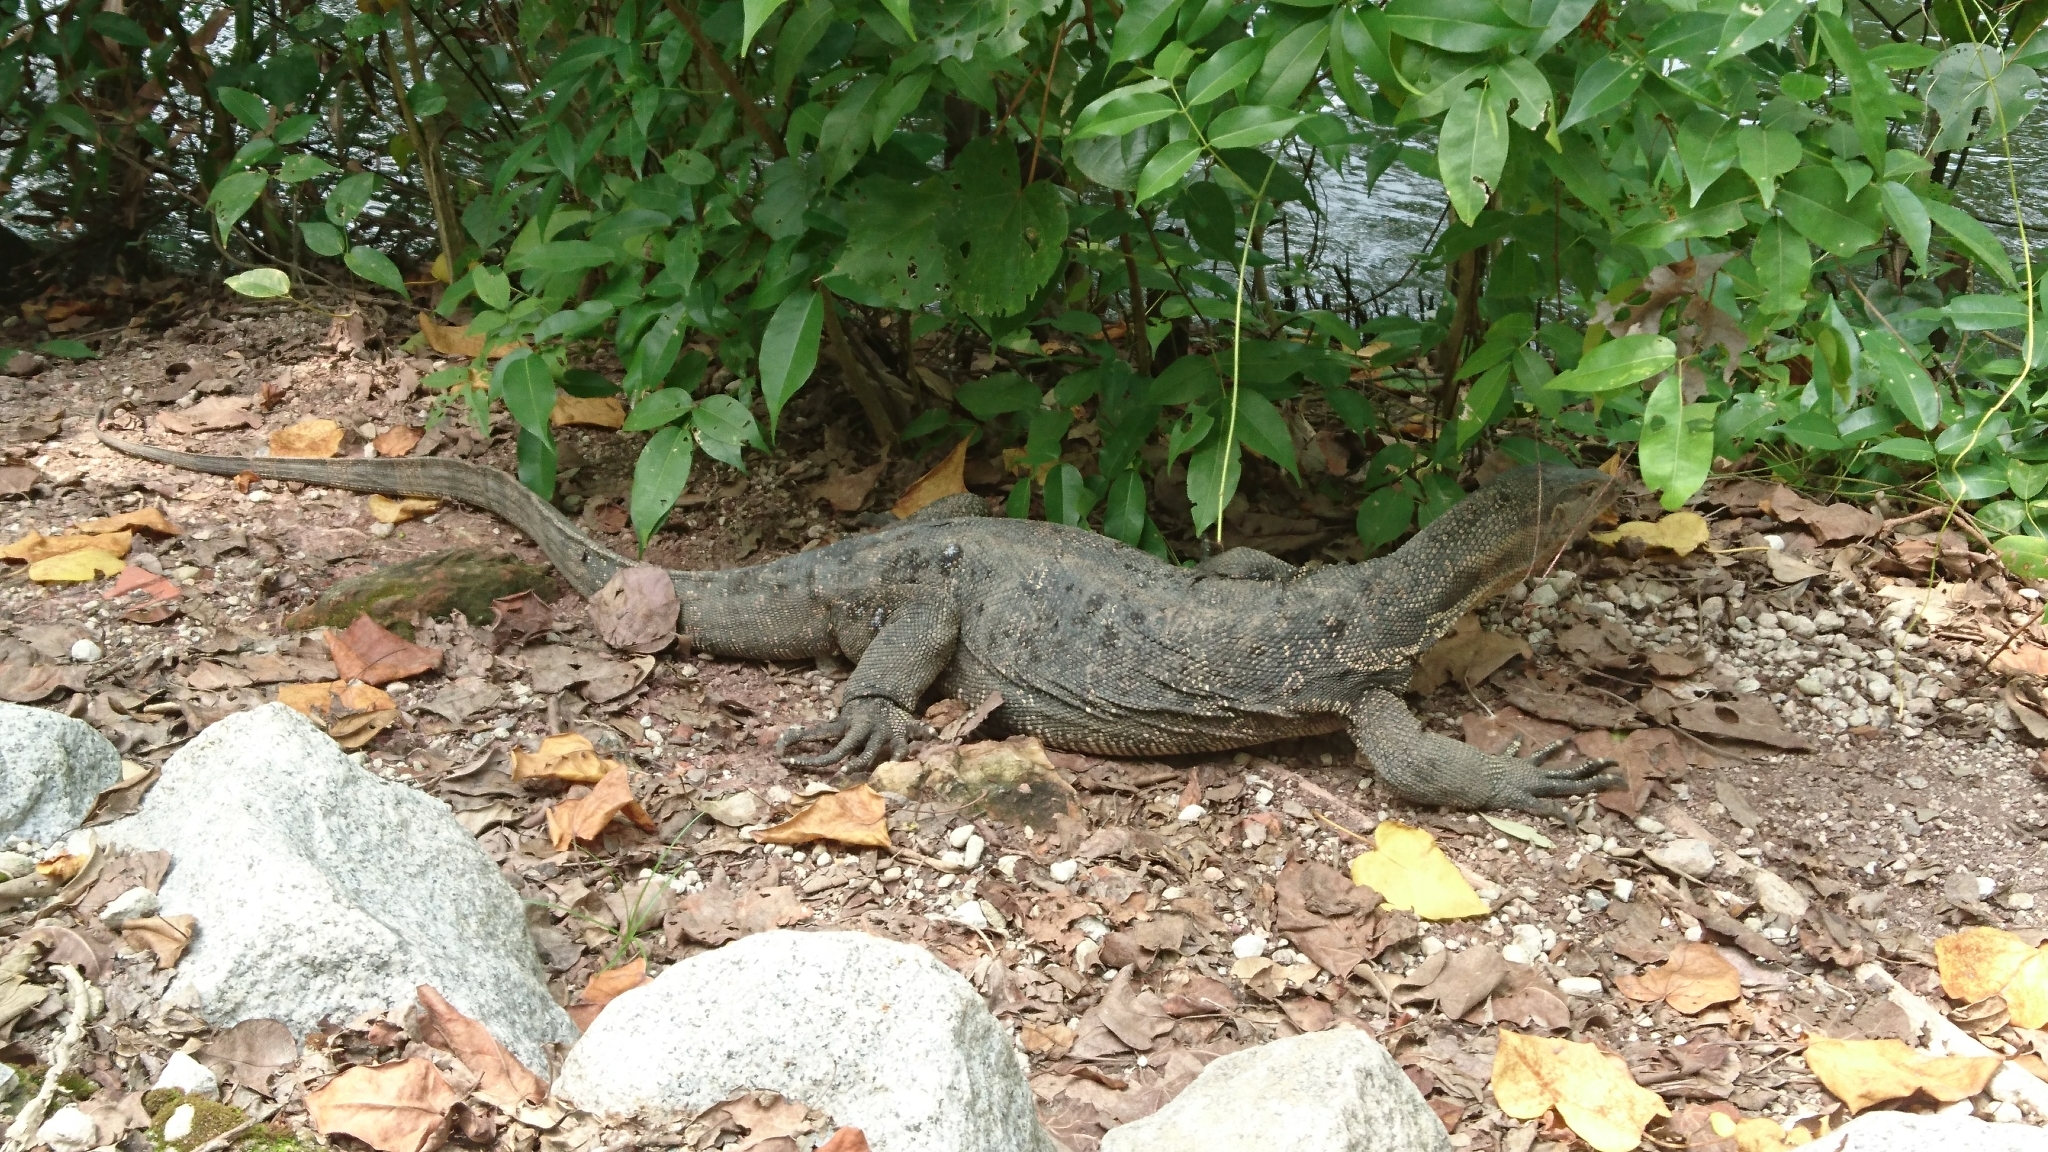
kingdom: Animalia
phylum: Chordata
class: Squamata
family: Varanidae
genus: Varanus
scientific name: Varanus salvator
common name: Common water monitor
